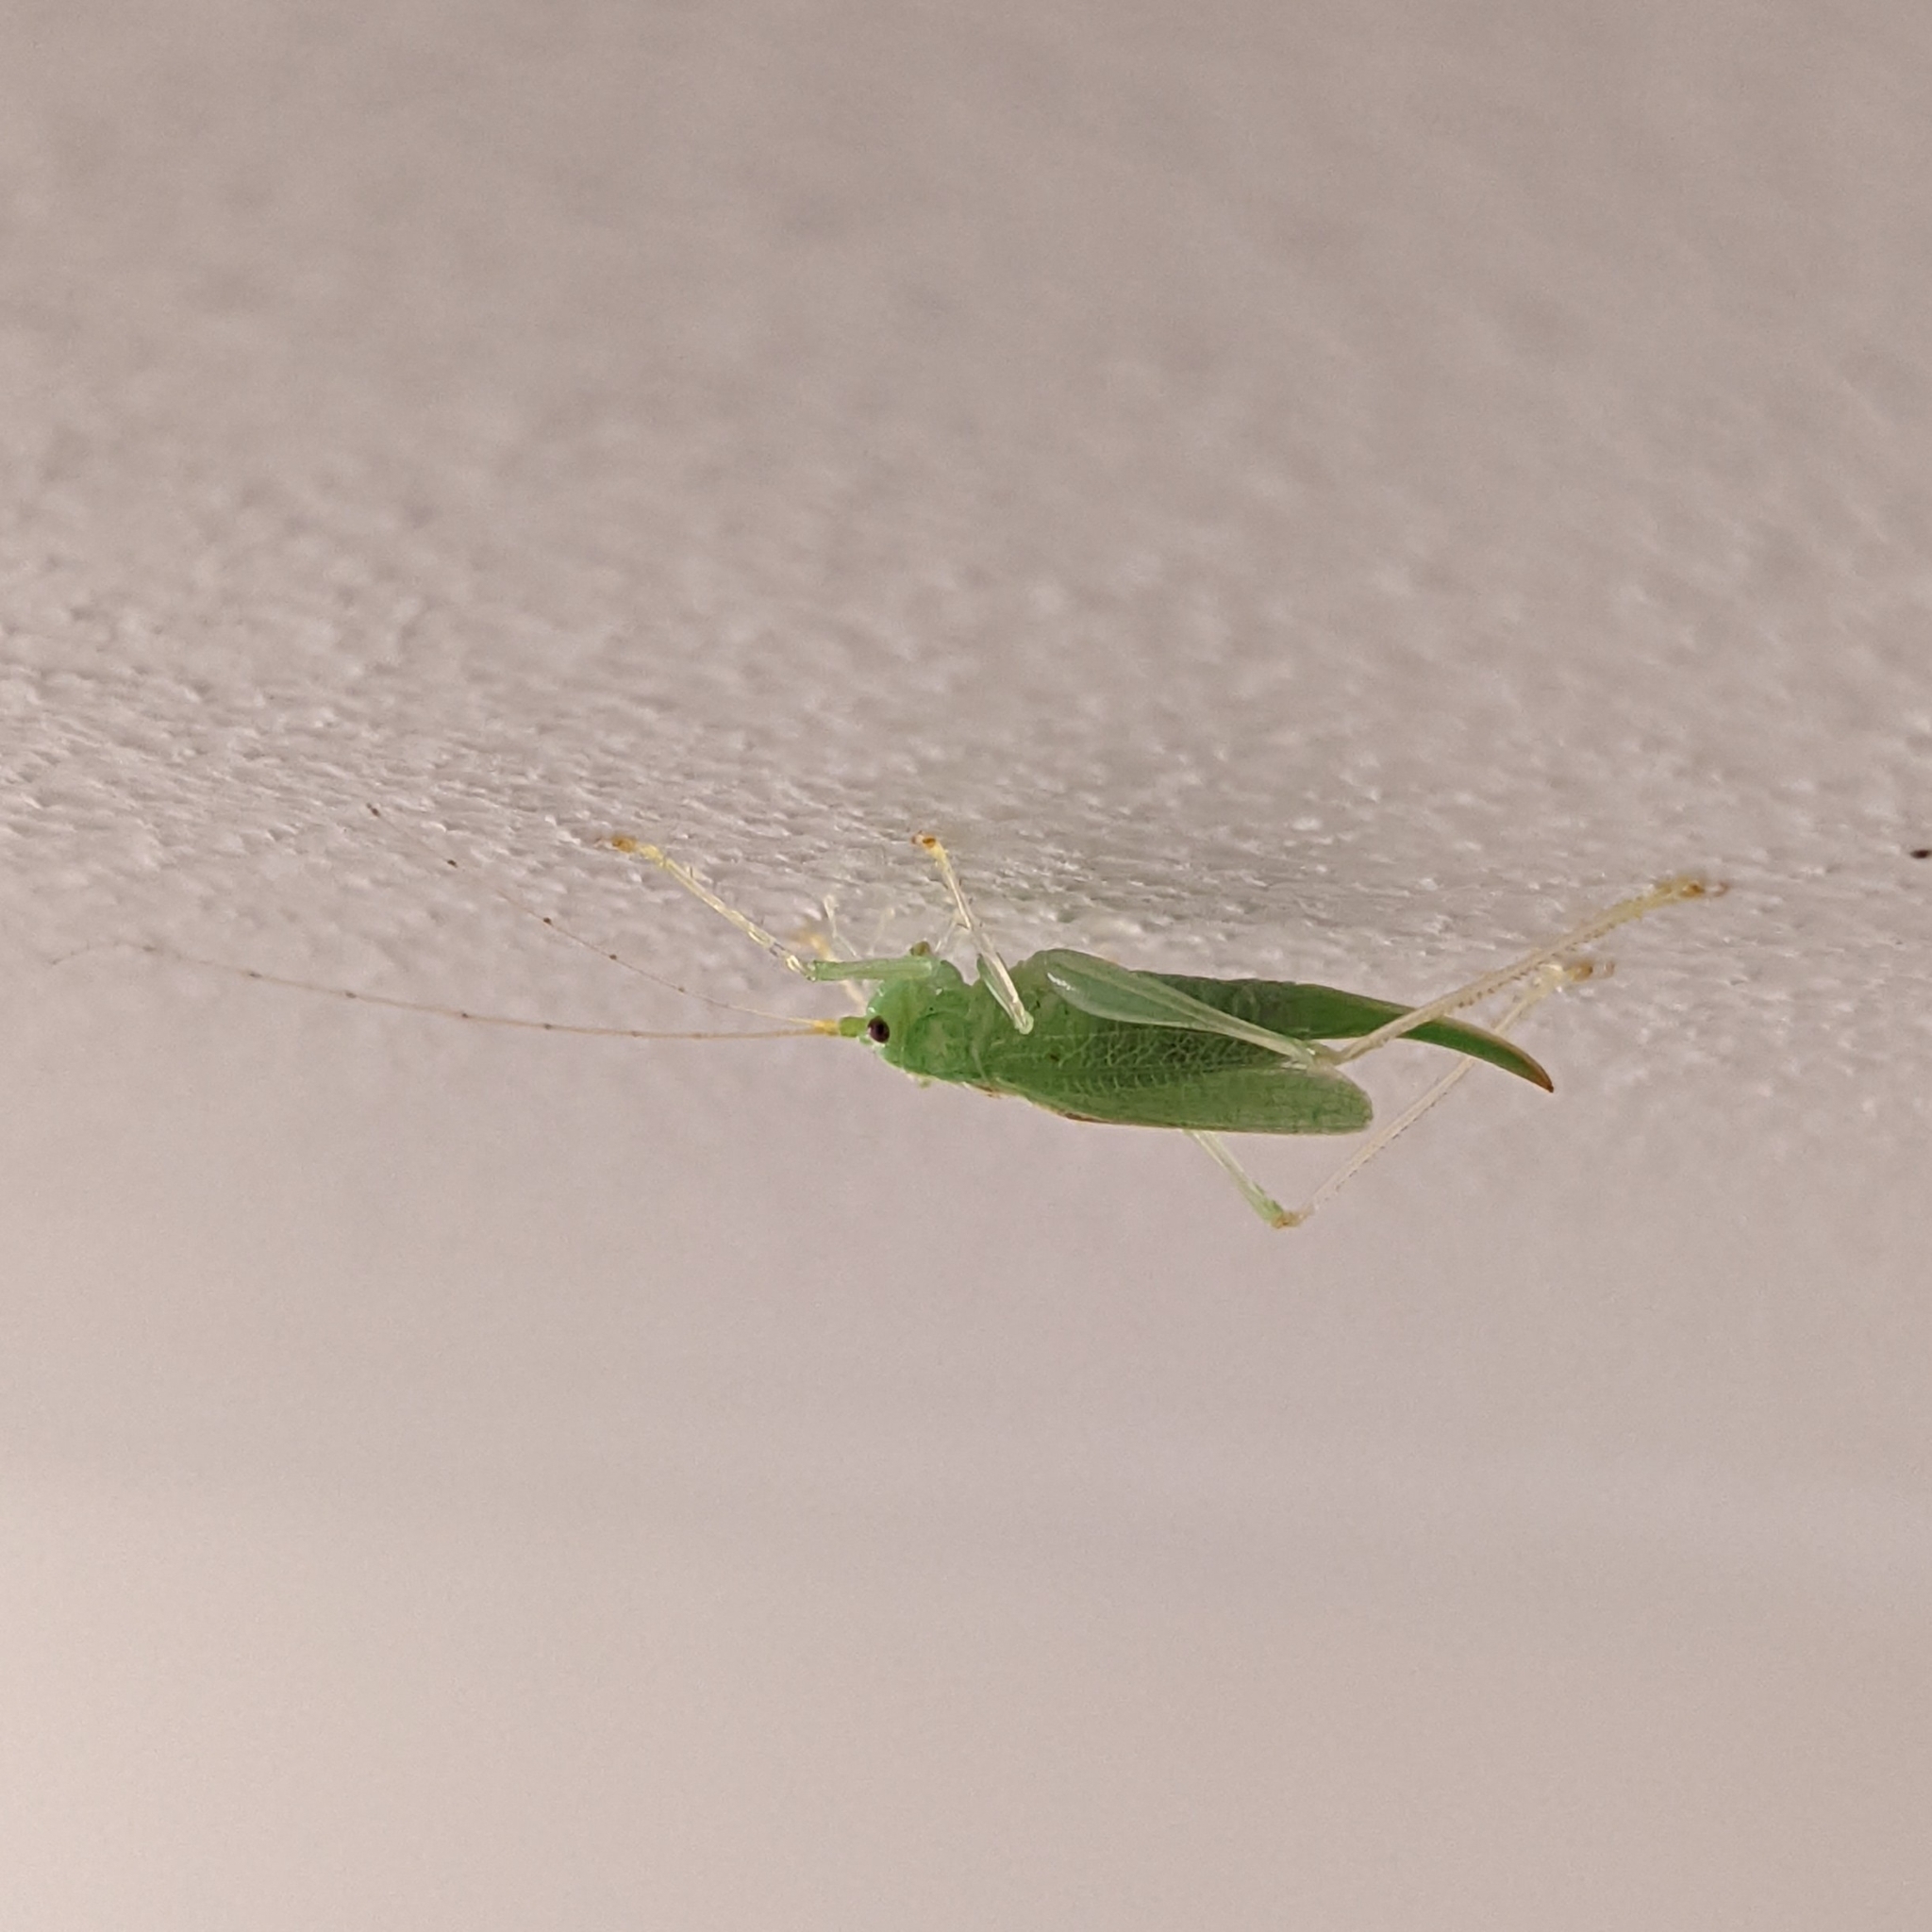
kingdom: Animalia
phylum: Arthropoda
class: Insecta
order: Orthoptera
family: Tettigoniidae
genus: Meconema
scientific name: Meconema thalassinum
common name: Oak bush-cricket
